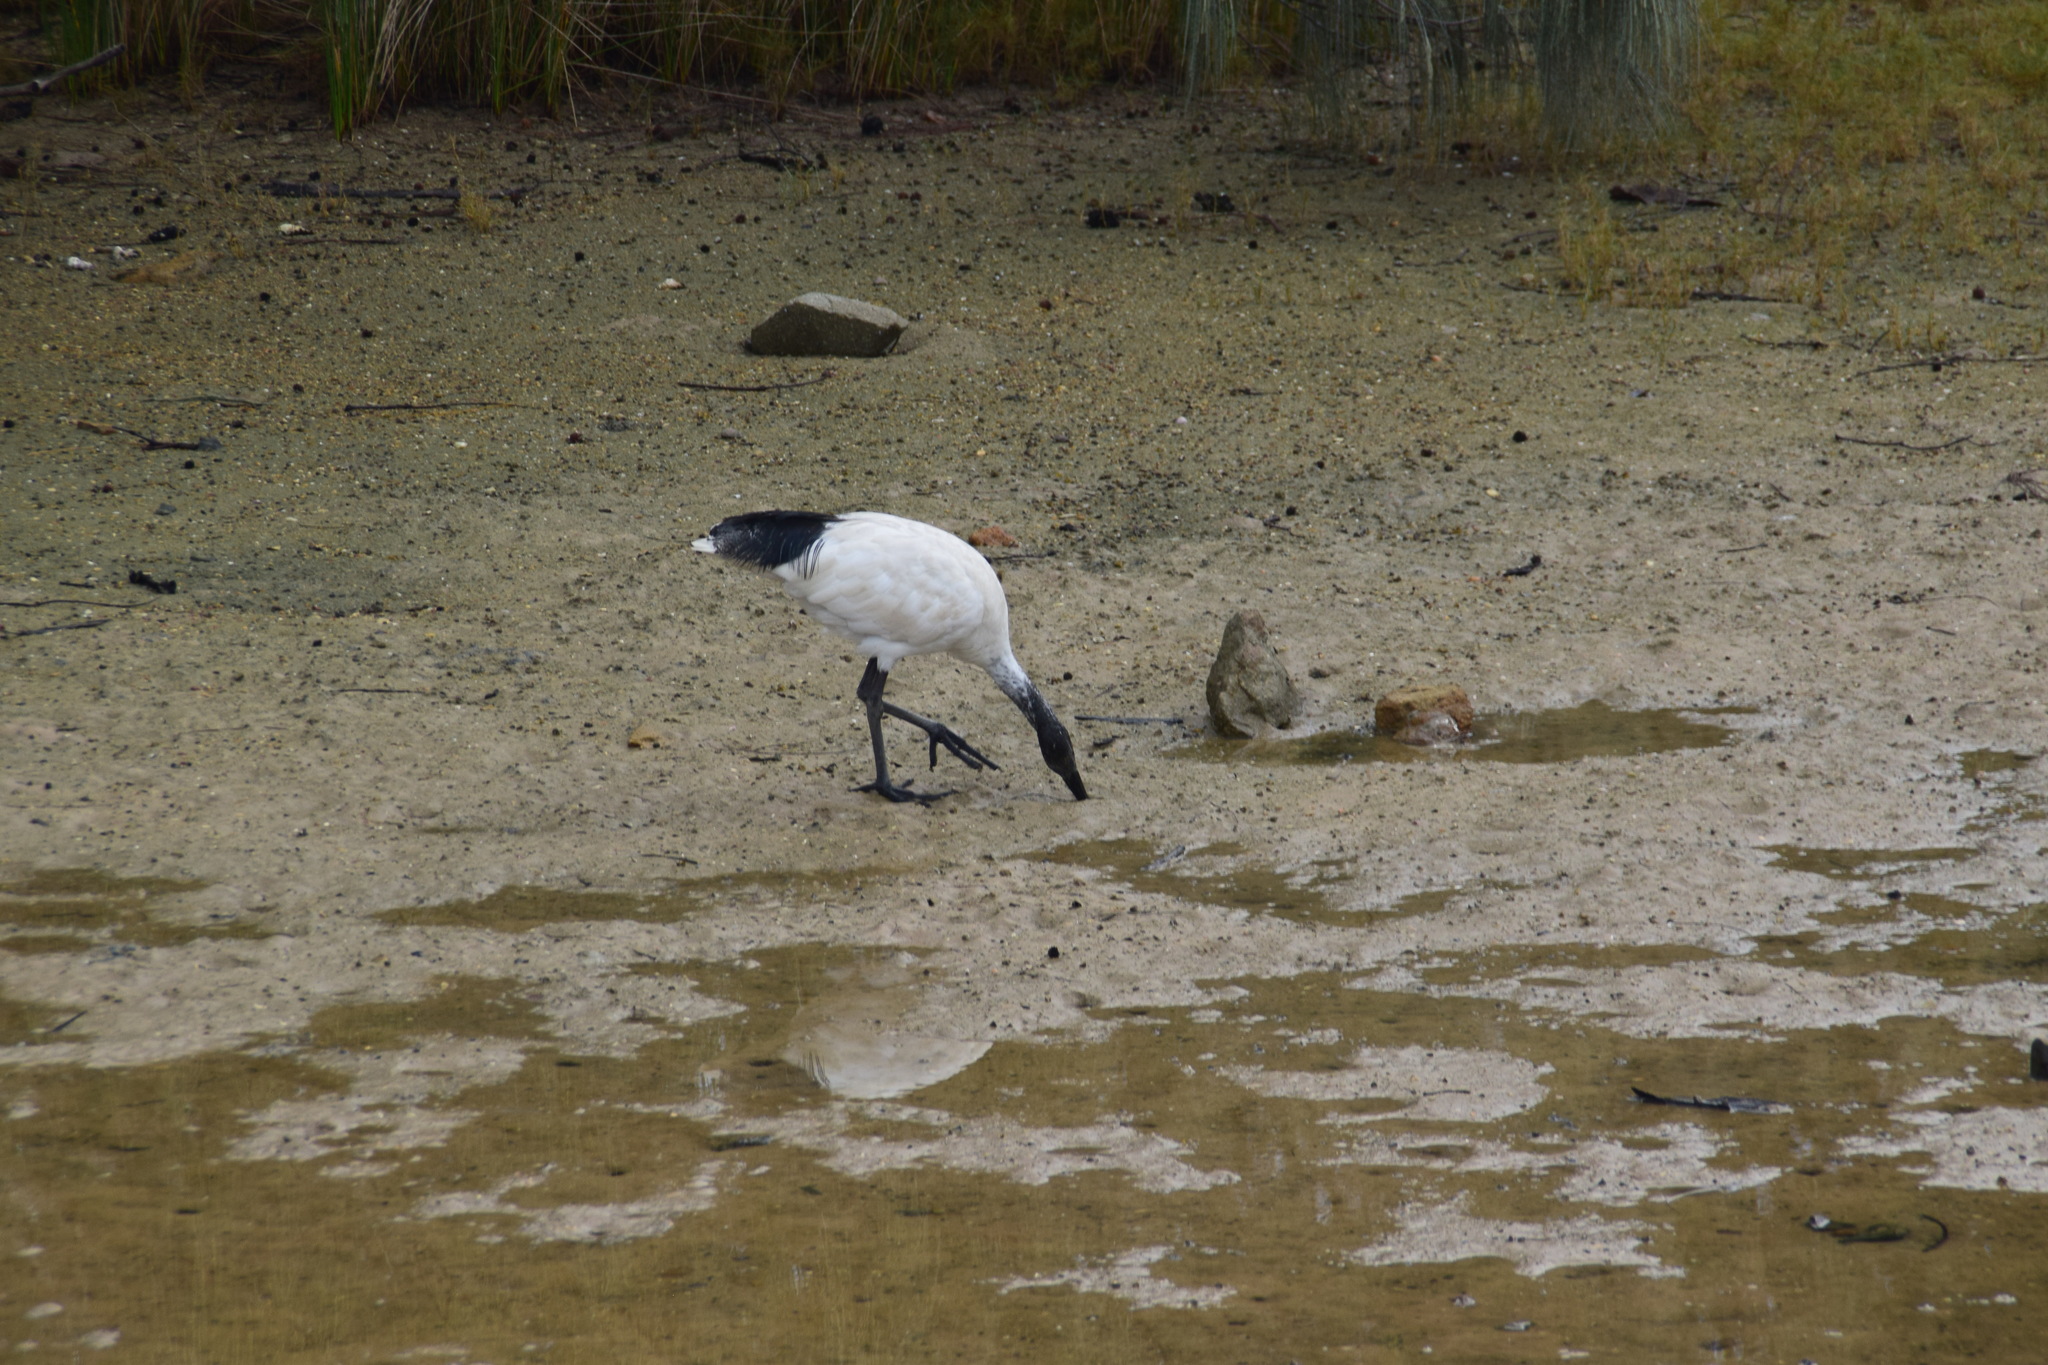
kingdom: Animalia
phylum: Chordata
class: Aves
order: Pelecaniformes
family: Threskiornithidae
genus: Threskiornis
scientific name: Threskiornis molucca
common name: Australian white ibis
